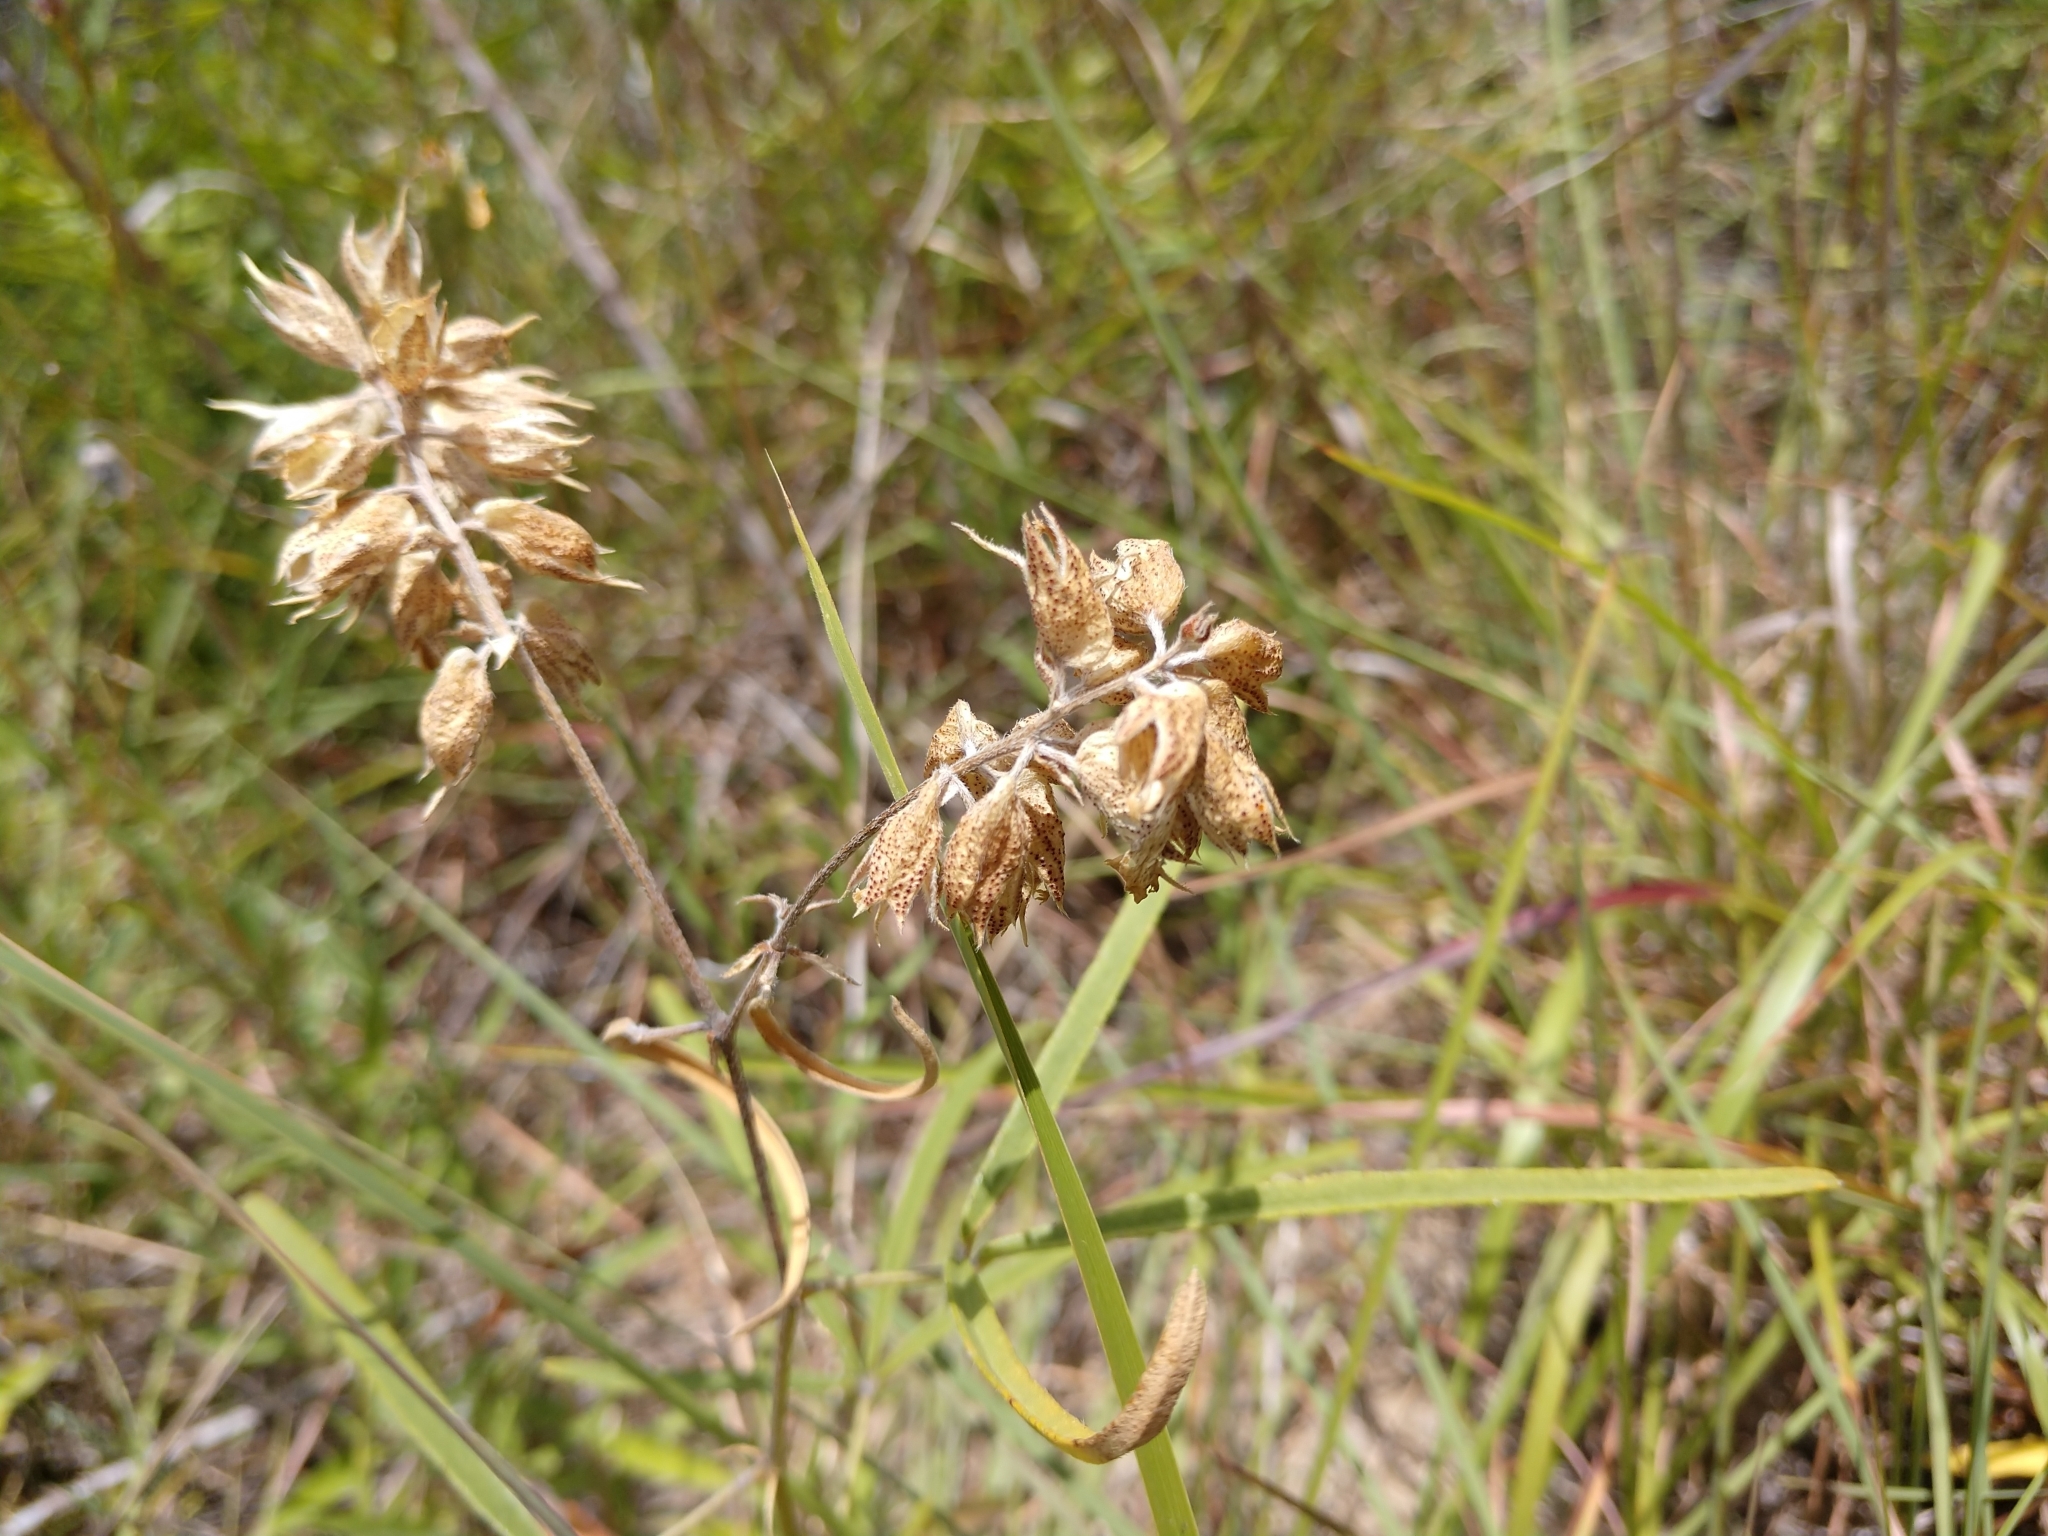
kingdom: Plantae
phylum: Tracheophyta
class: Magnoliopsida
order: Fabales
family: Fabaceae
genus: Pediomelum
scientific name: Pediomelum cyphocalyx
